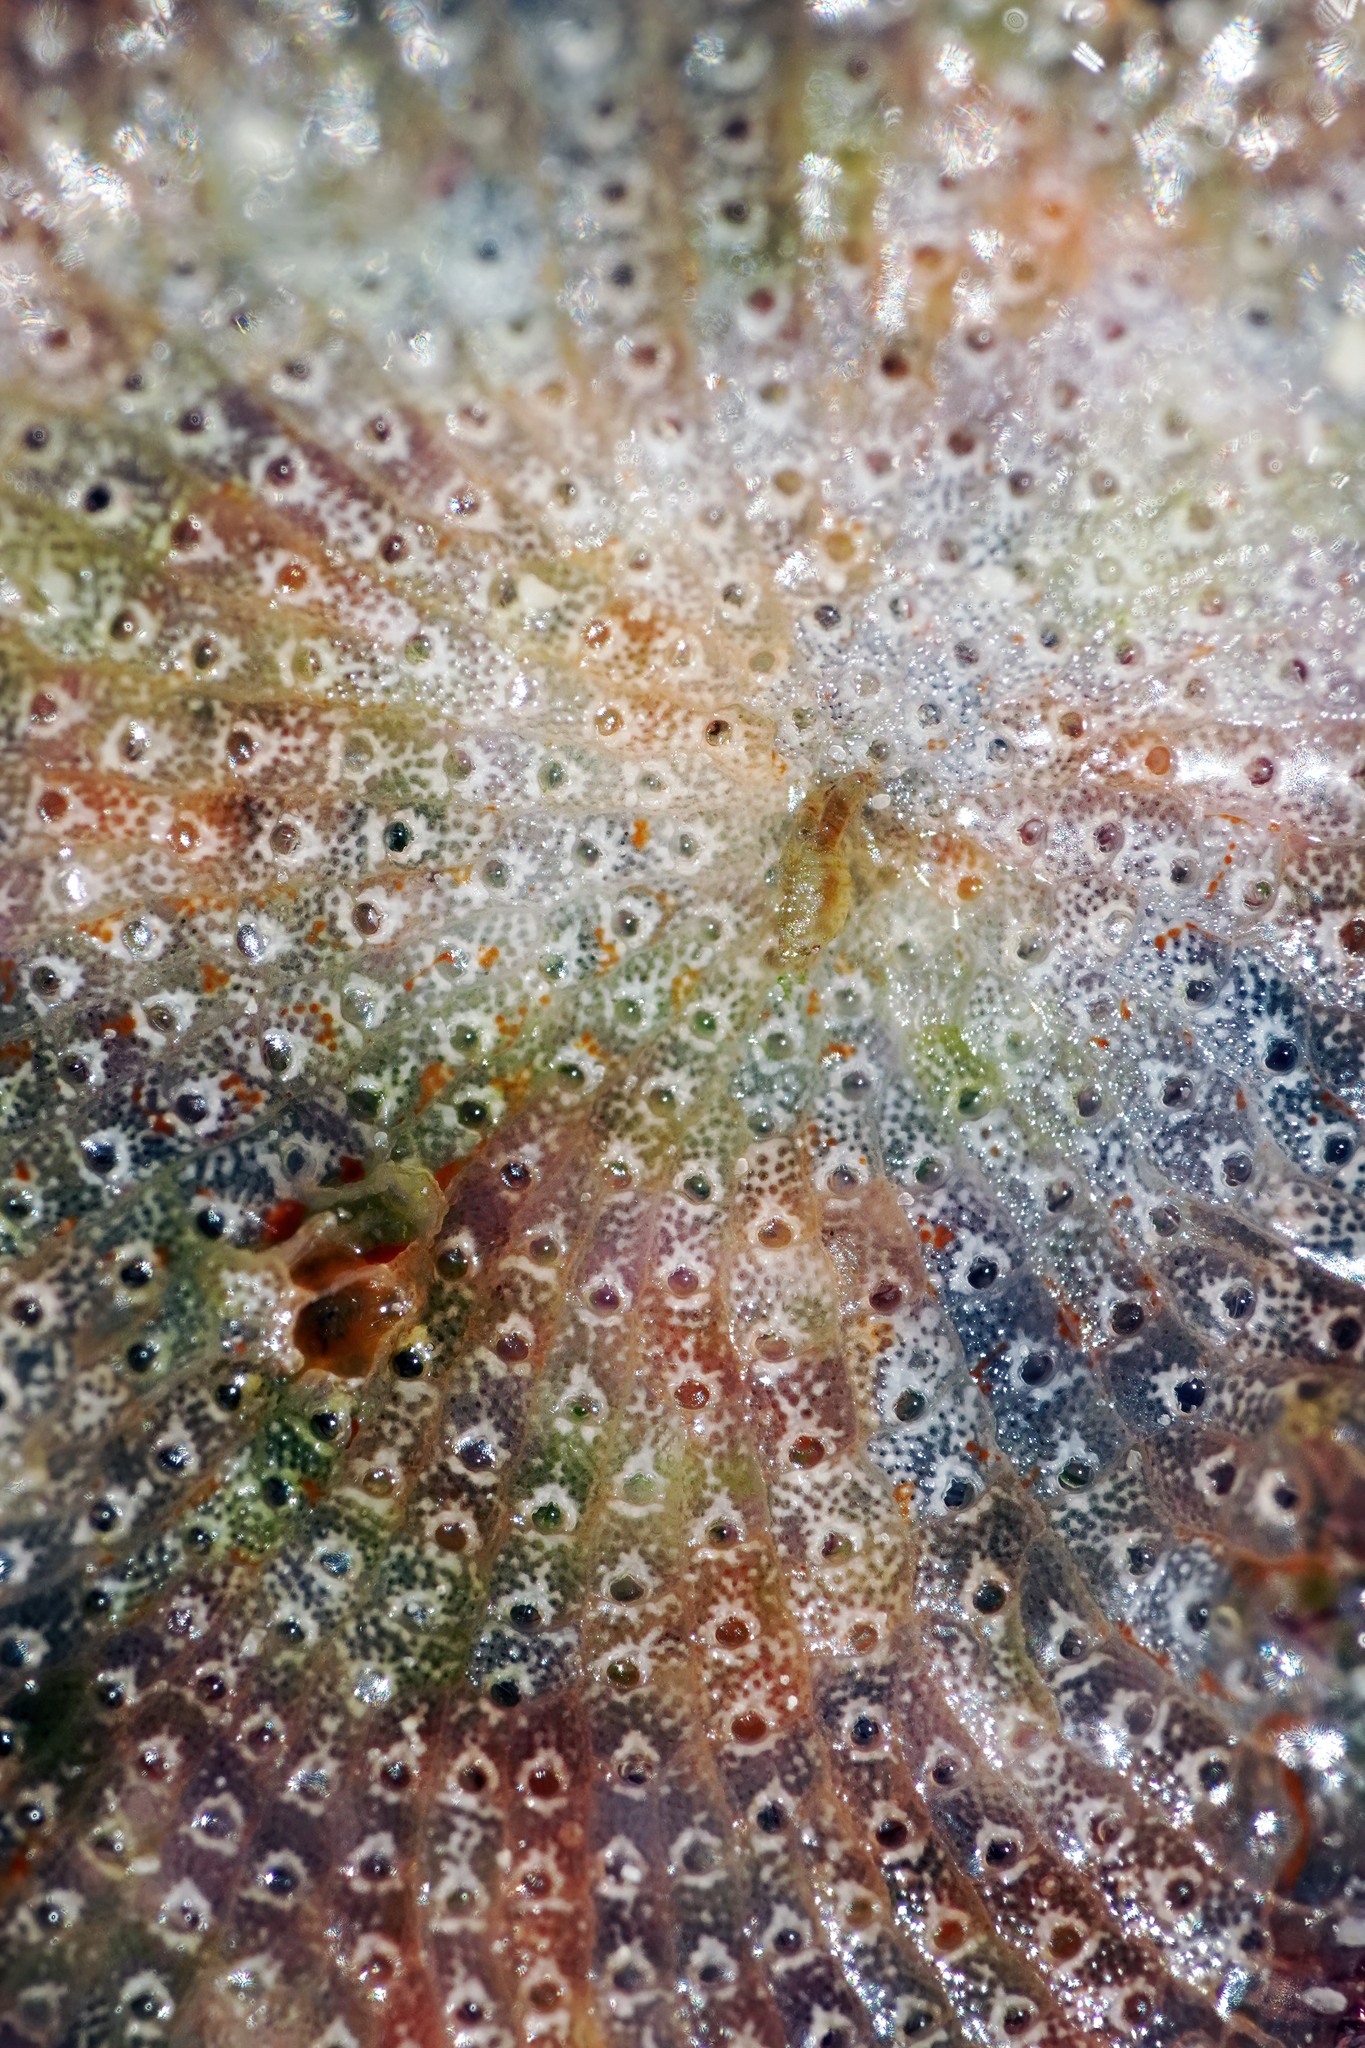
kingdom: Animalia
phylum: Bryozoa
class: Gymnolaemata
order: Cheilostomatida
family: Schizoporellidae
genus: Schizobrachiella
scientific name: Schizobrachiella sanguinea
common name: Blood-red encrusting bryozoan
